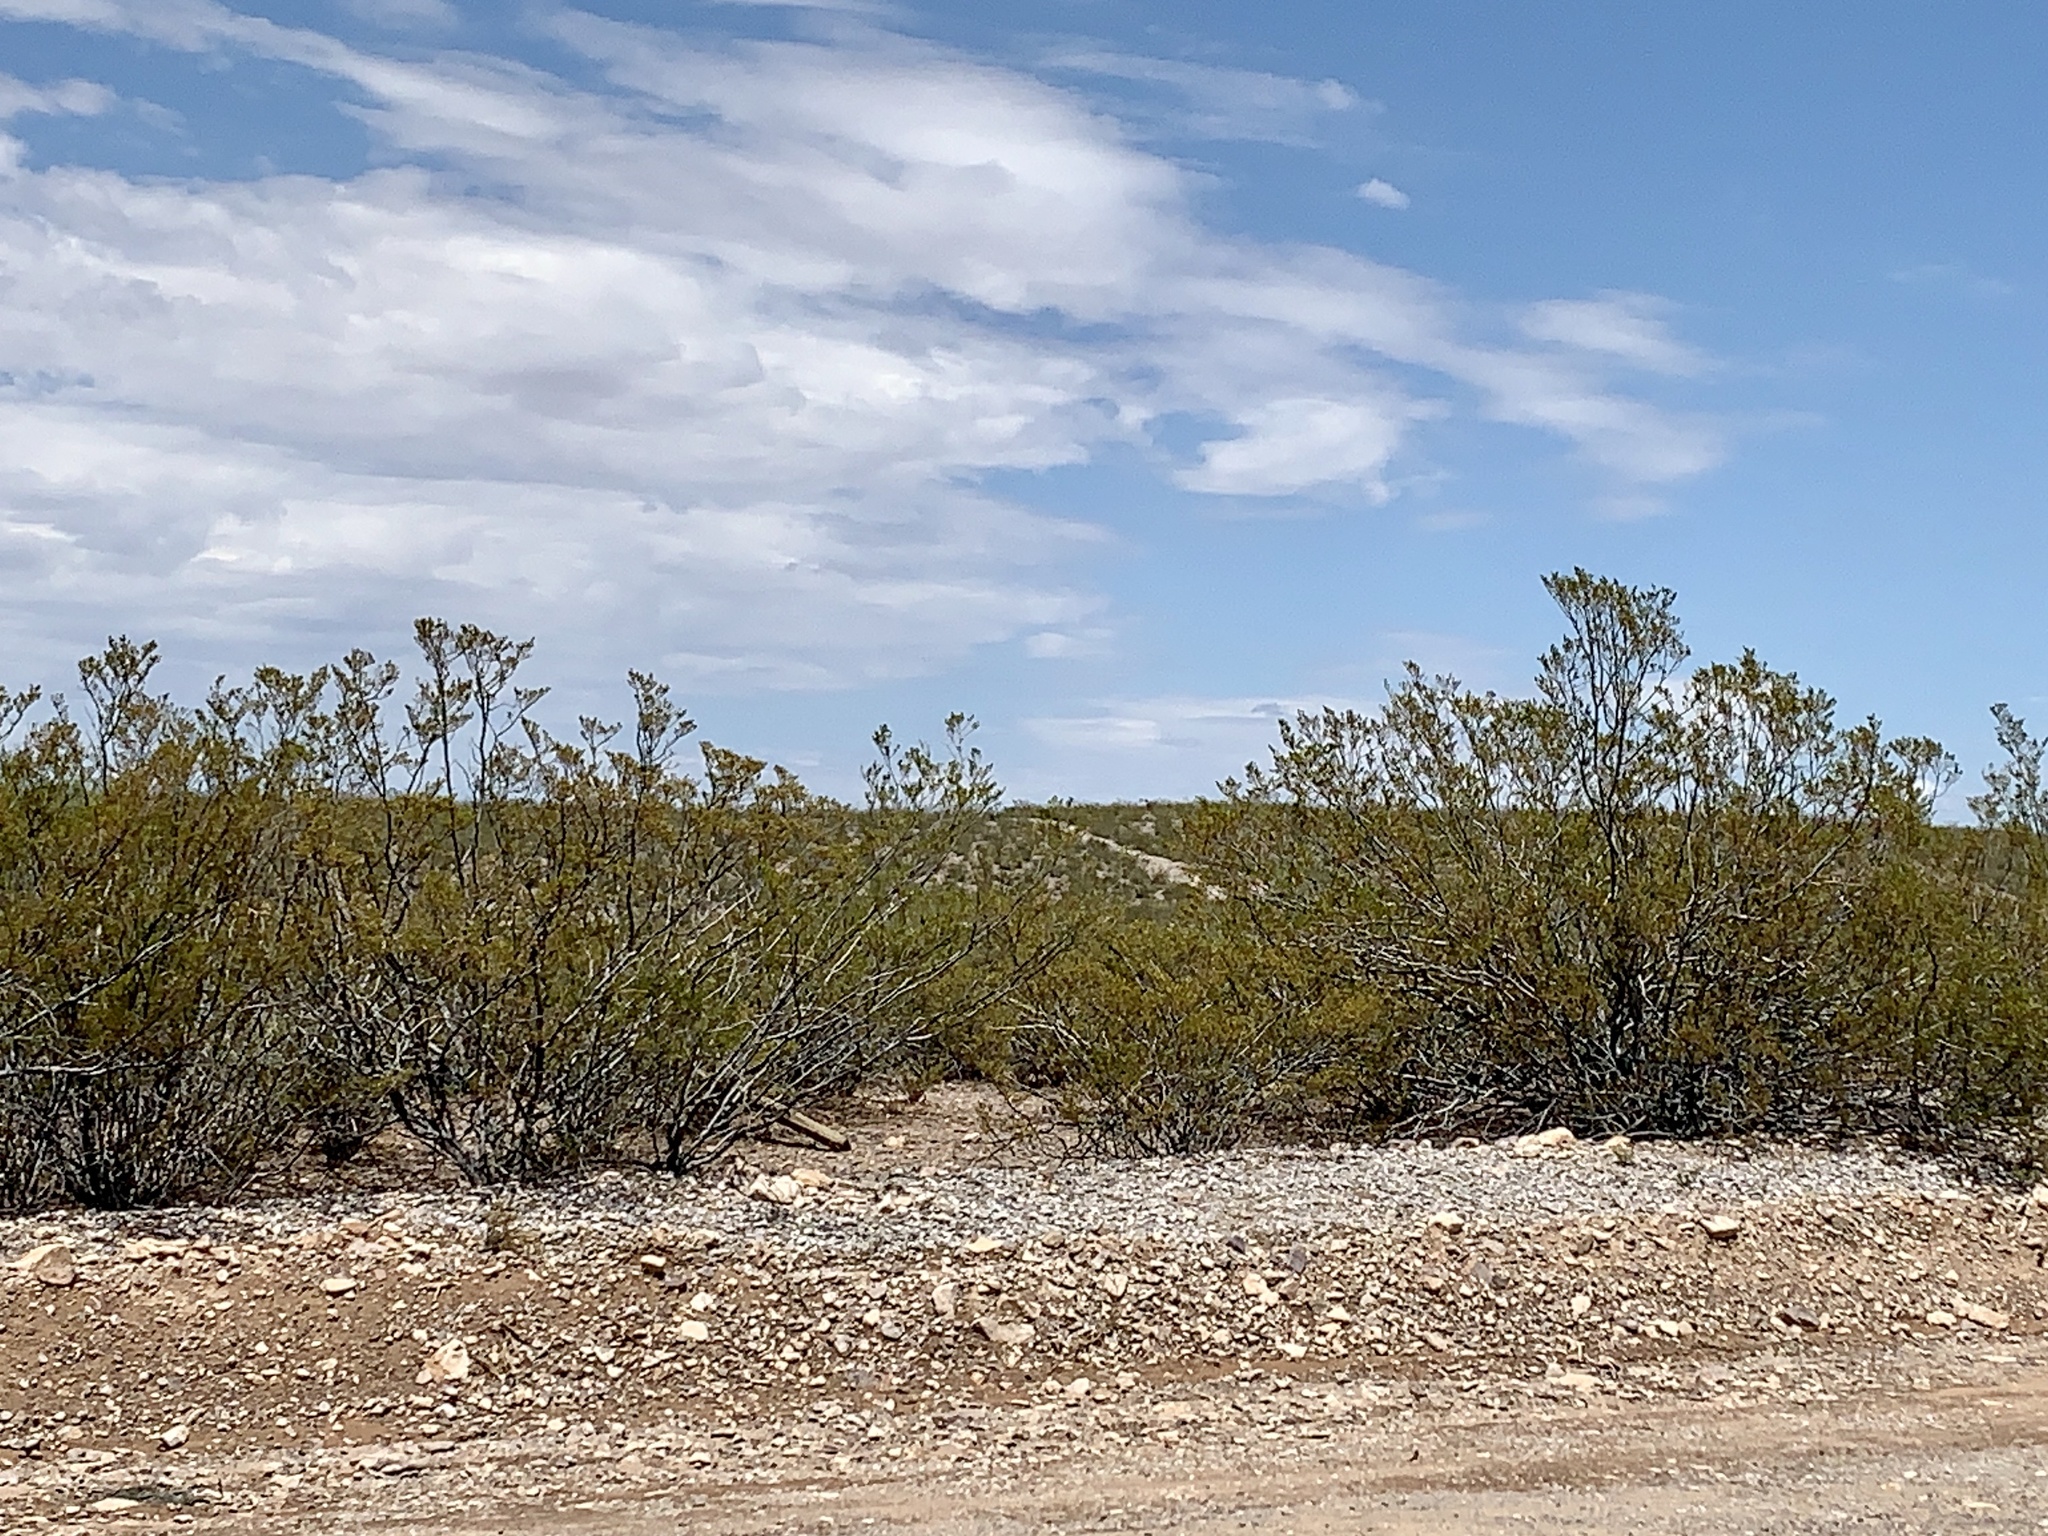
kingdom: Plantae
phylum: Tracheophyta
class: Magnoliopsida
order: Zygophyllales
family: Zygophyllaceae
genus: Larrea
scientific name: Larrea tridentata
